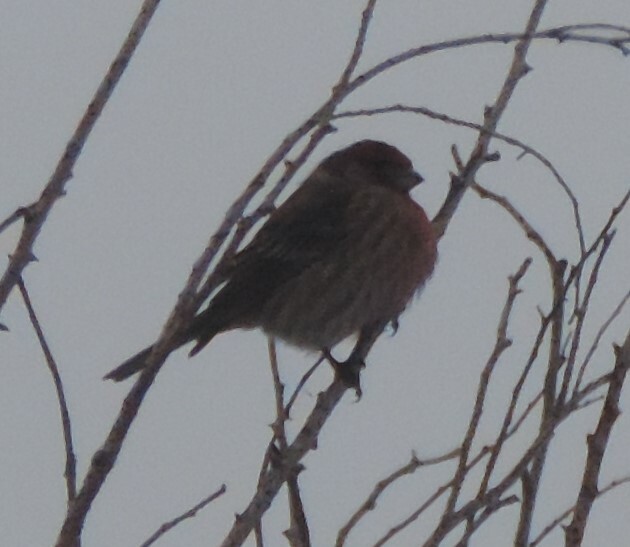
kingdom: Animalia
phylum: Chordata
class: Aves
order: Passeriformes
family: Fringillidae
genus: Haemorhous
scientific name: Haemorhous mexicanus
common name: House finch
